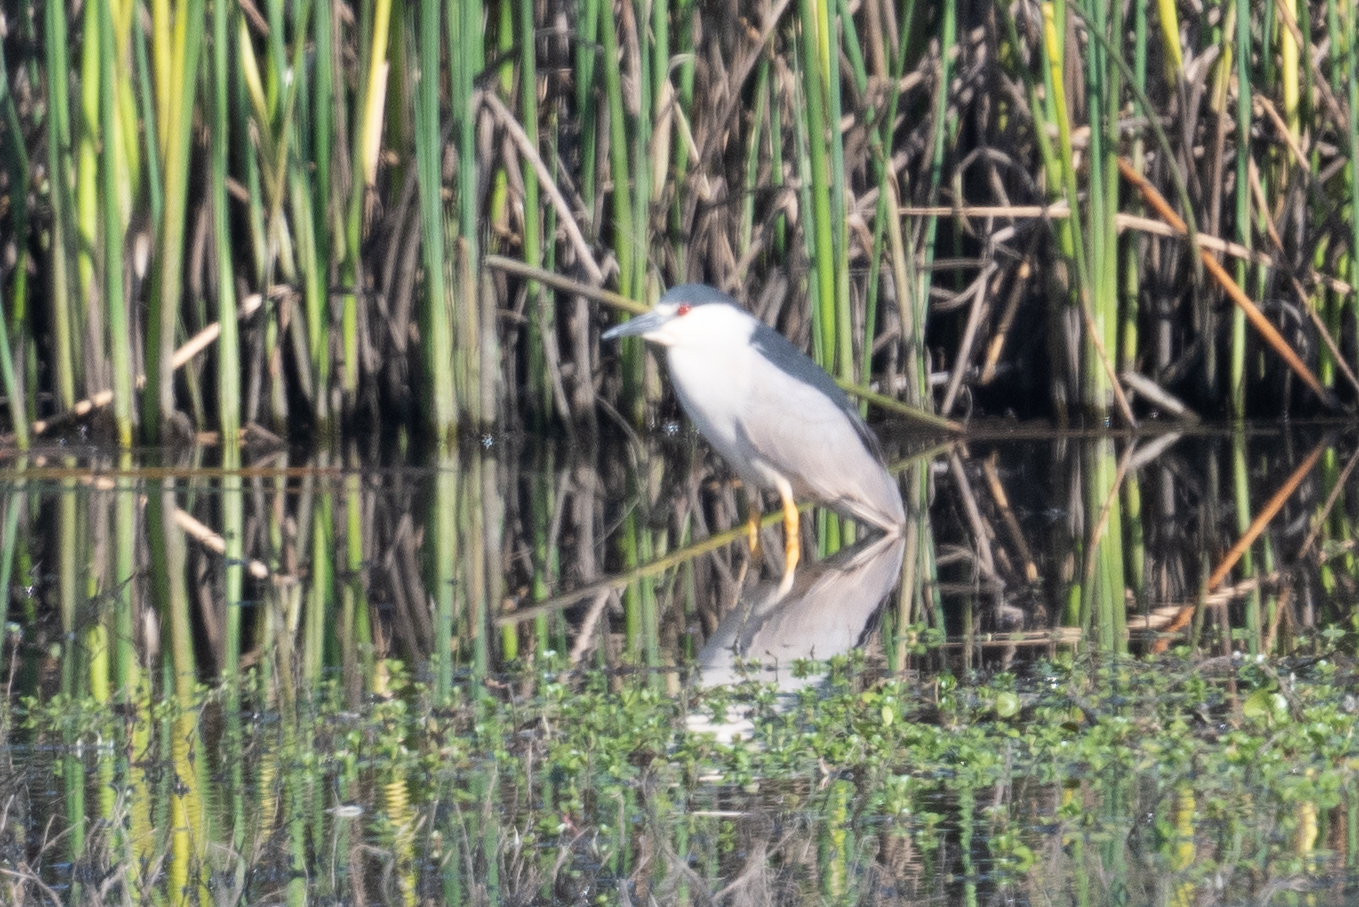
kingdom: Animalia
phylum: Chordata
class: Aves
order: Pelecaniformes
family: Ardeidae
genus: Nycticorax
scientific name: Nycticorax nycticorax
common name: Black-crowned night heron
